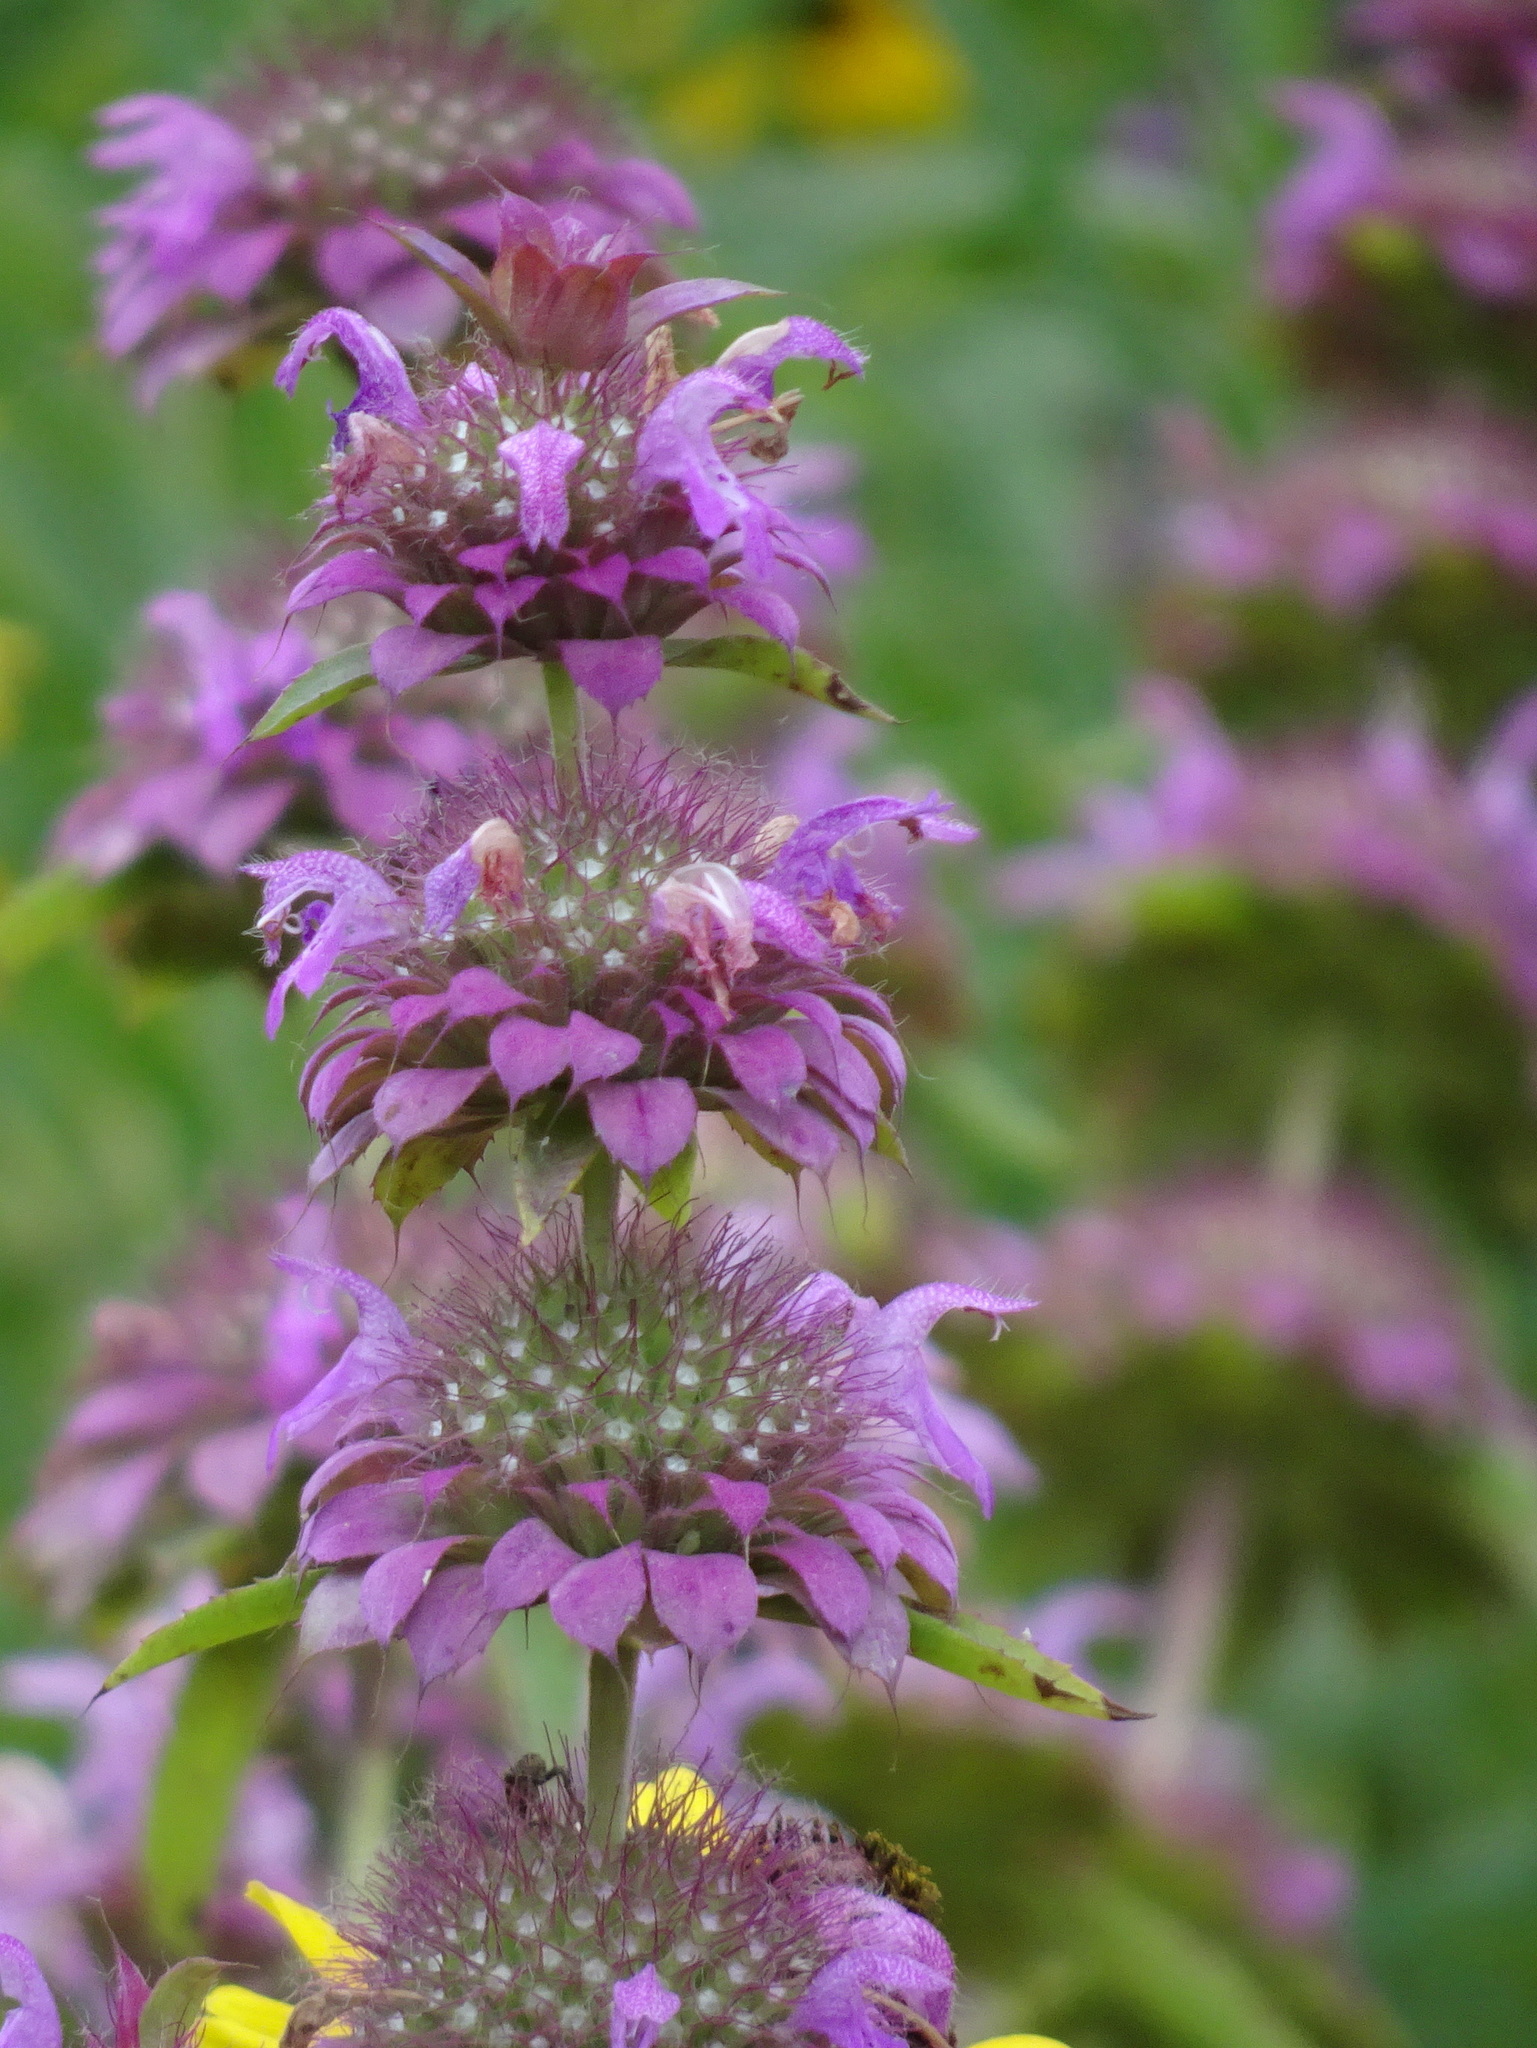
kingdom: Plantae
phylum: Tracheophyta
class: Magnoliopsida
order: Lamiales
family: Lamiaceae
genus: Monarda
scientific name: Monarda citriodora
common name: Lemon beebalm
